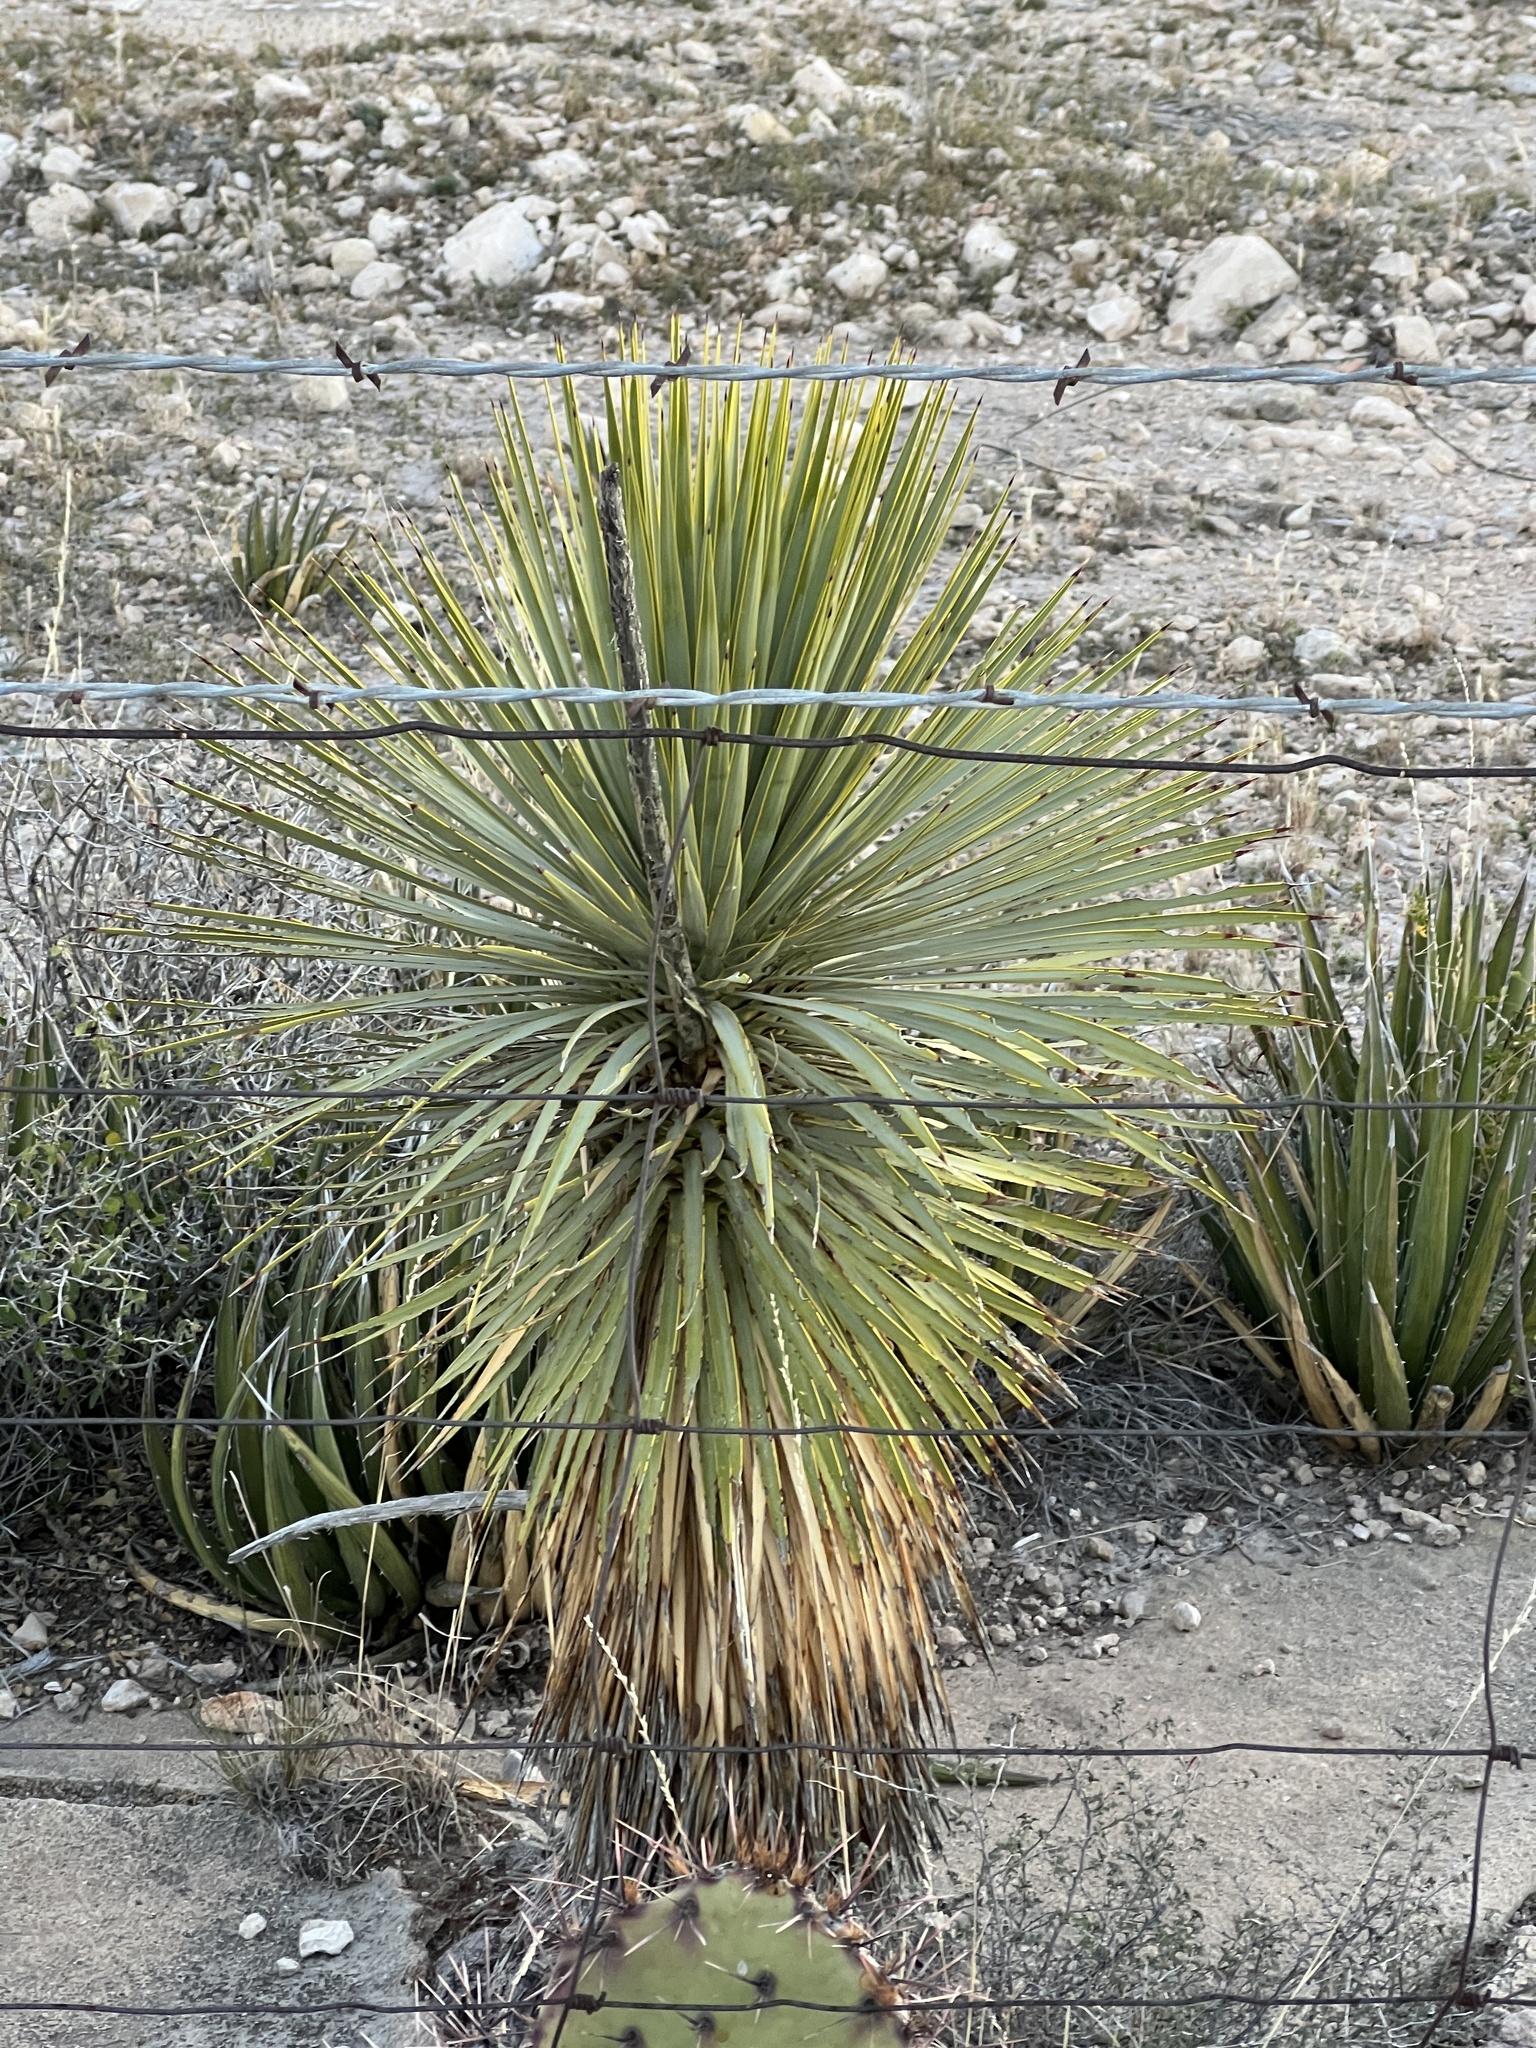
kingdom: Plantae
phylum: Tracheophyta
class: Liliopsida
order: Asparagales
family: Asparagaceae
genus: Yucca
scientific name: Yucca thompsoniana
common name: Trans-pecos yucca
